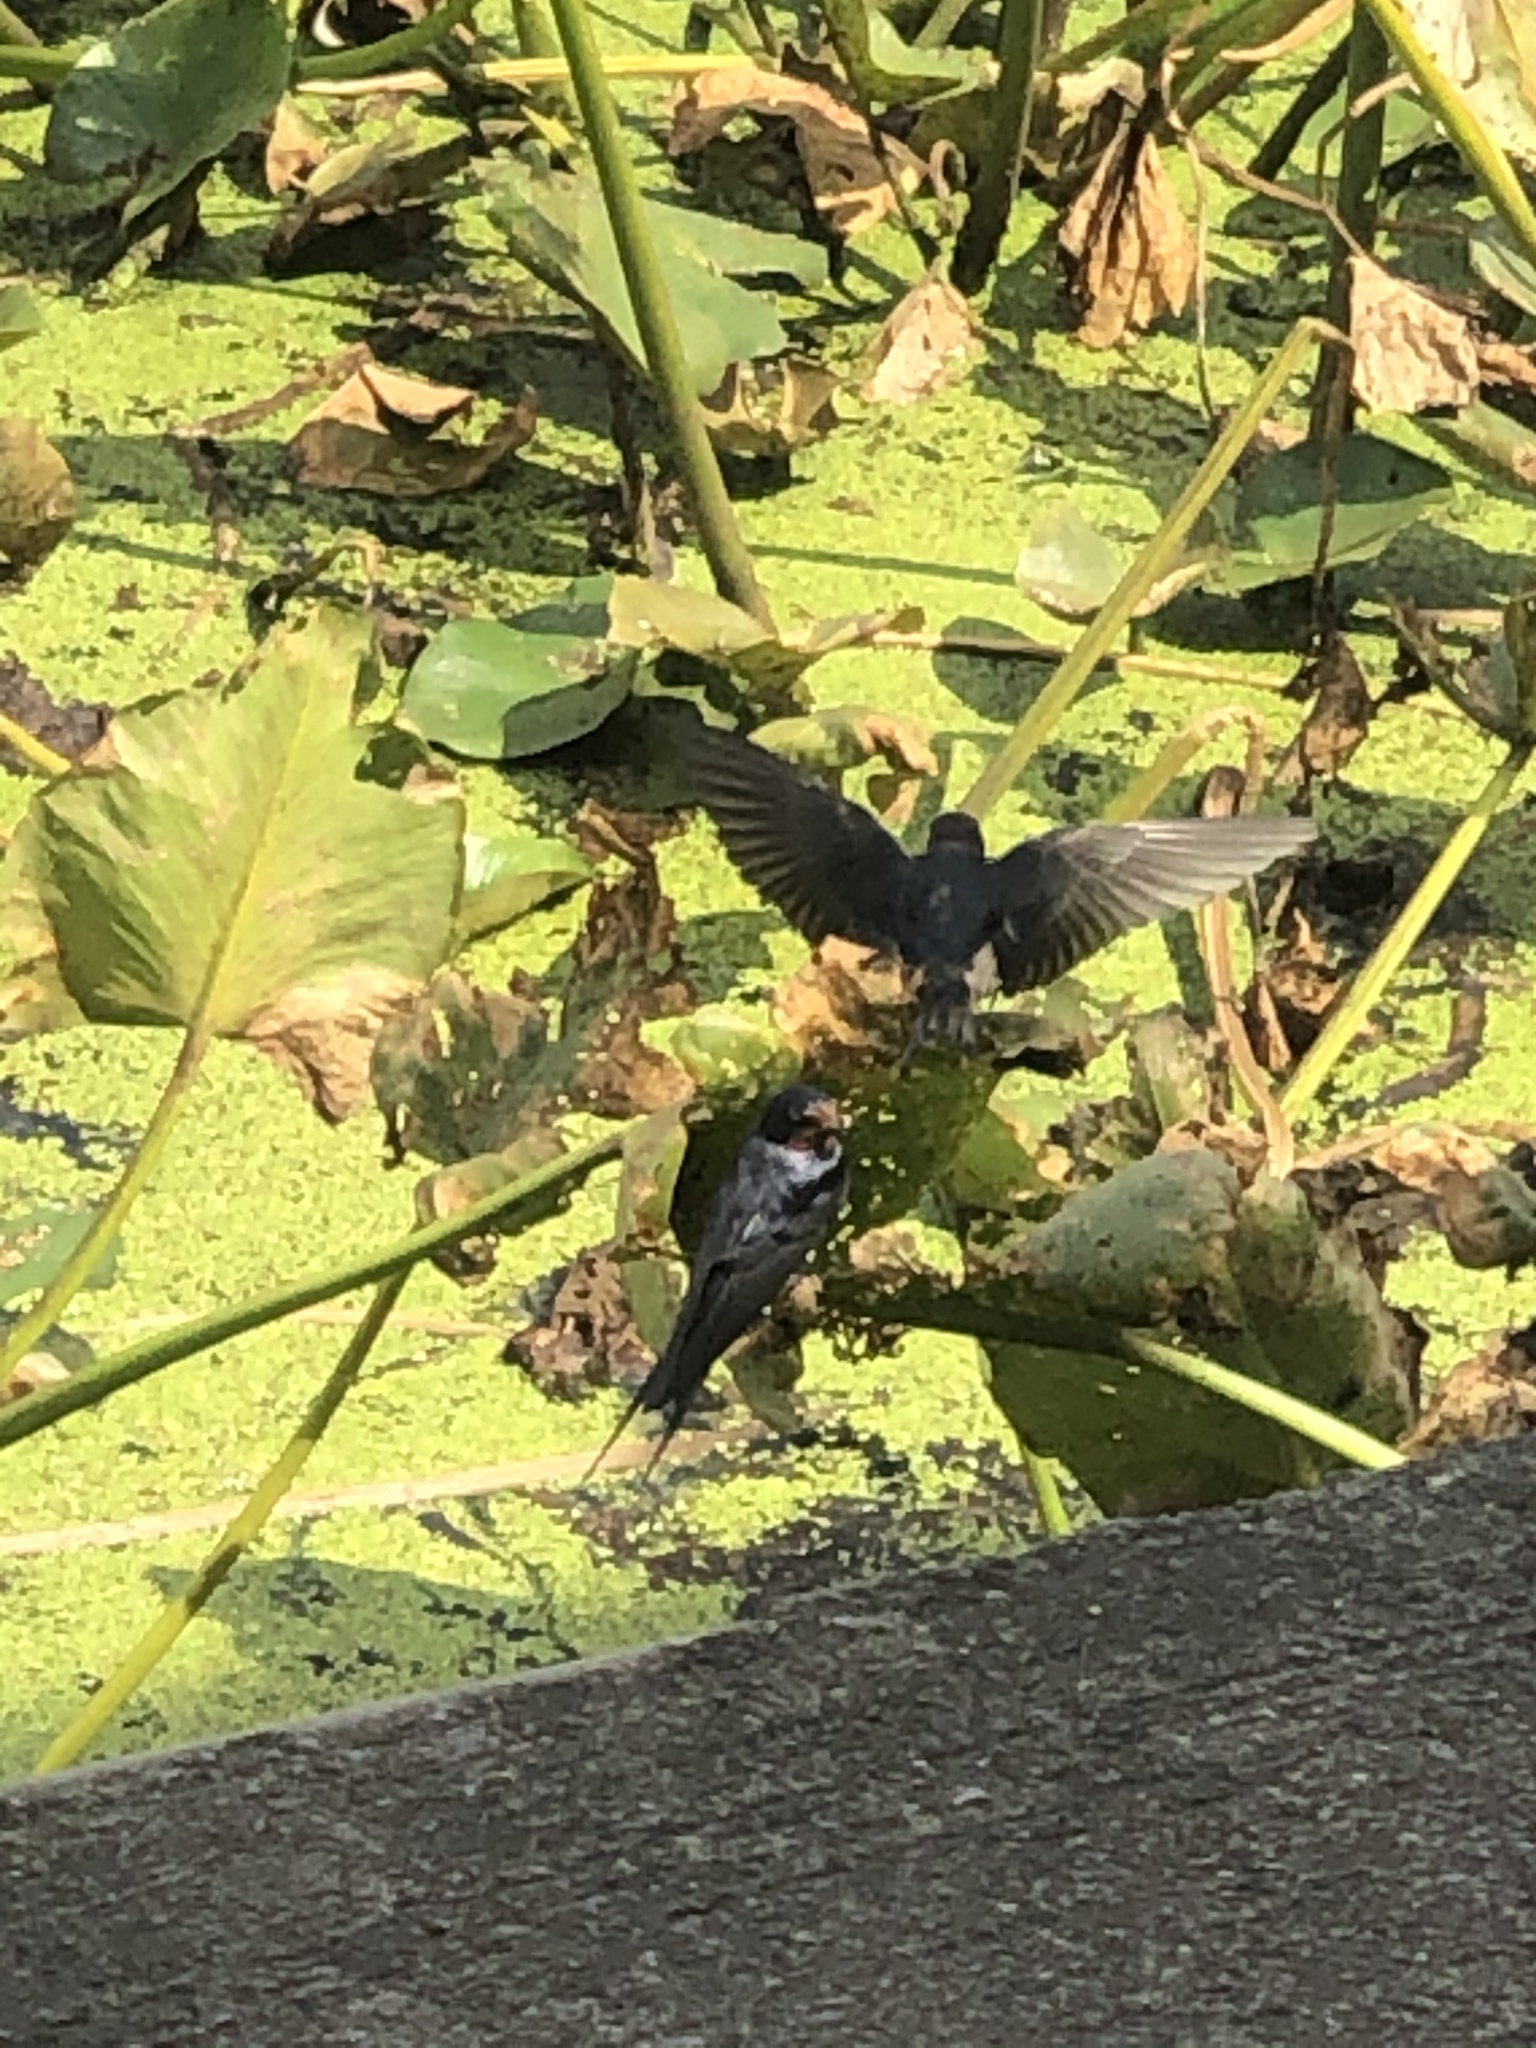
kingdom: Animalia
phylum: Chordata
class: Aves
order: Passeriformes
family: Hirundinidae
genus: Hirundo
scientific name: Hirundo rustica
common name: Barn swallow
